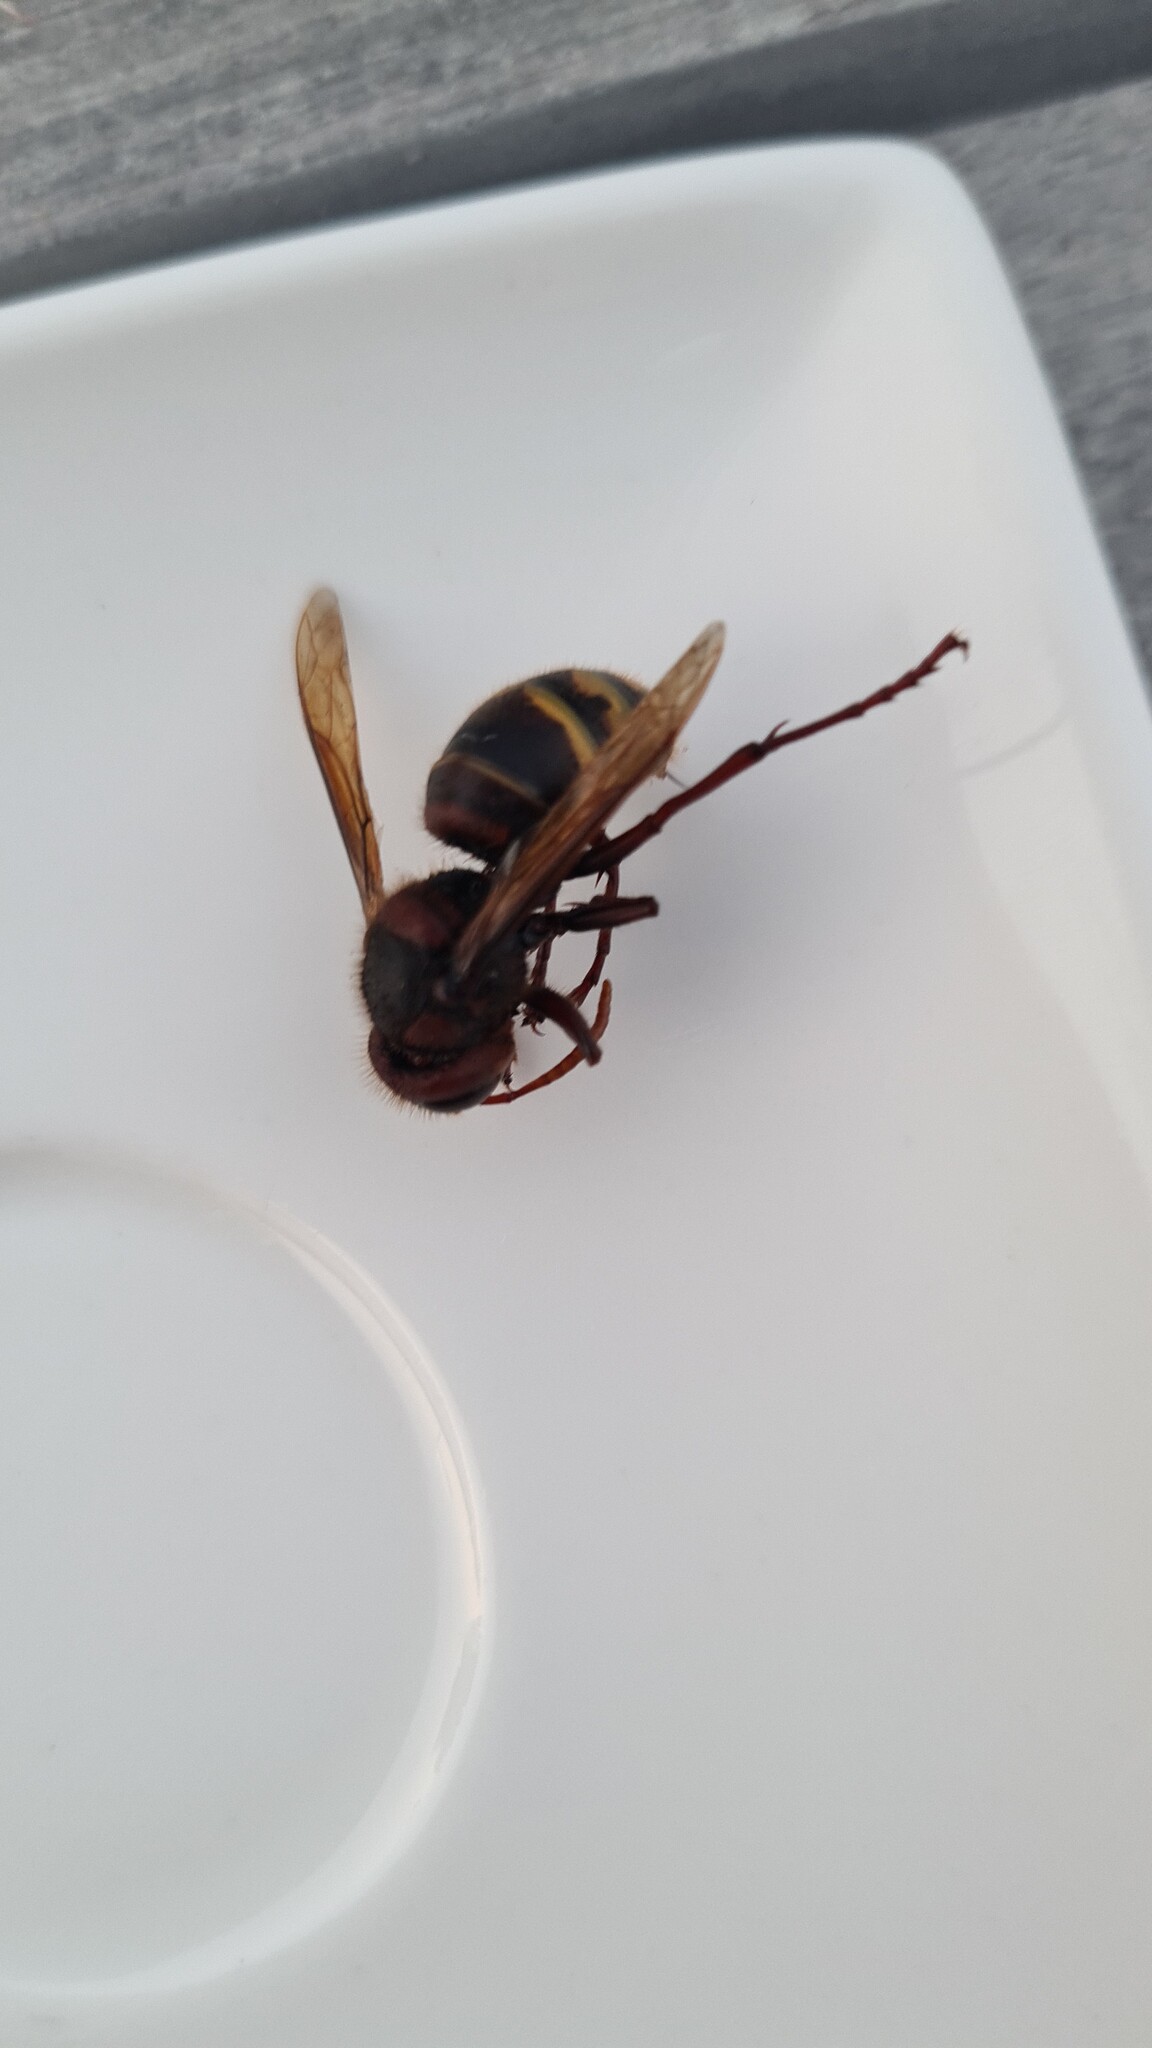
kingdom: Animalia
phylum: Arthropoda
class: Insecta
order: Hymenoptera
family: Vespidae
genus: Vespa
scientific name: Vespa crabro
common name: Hornet
